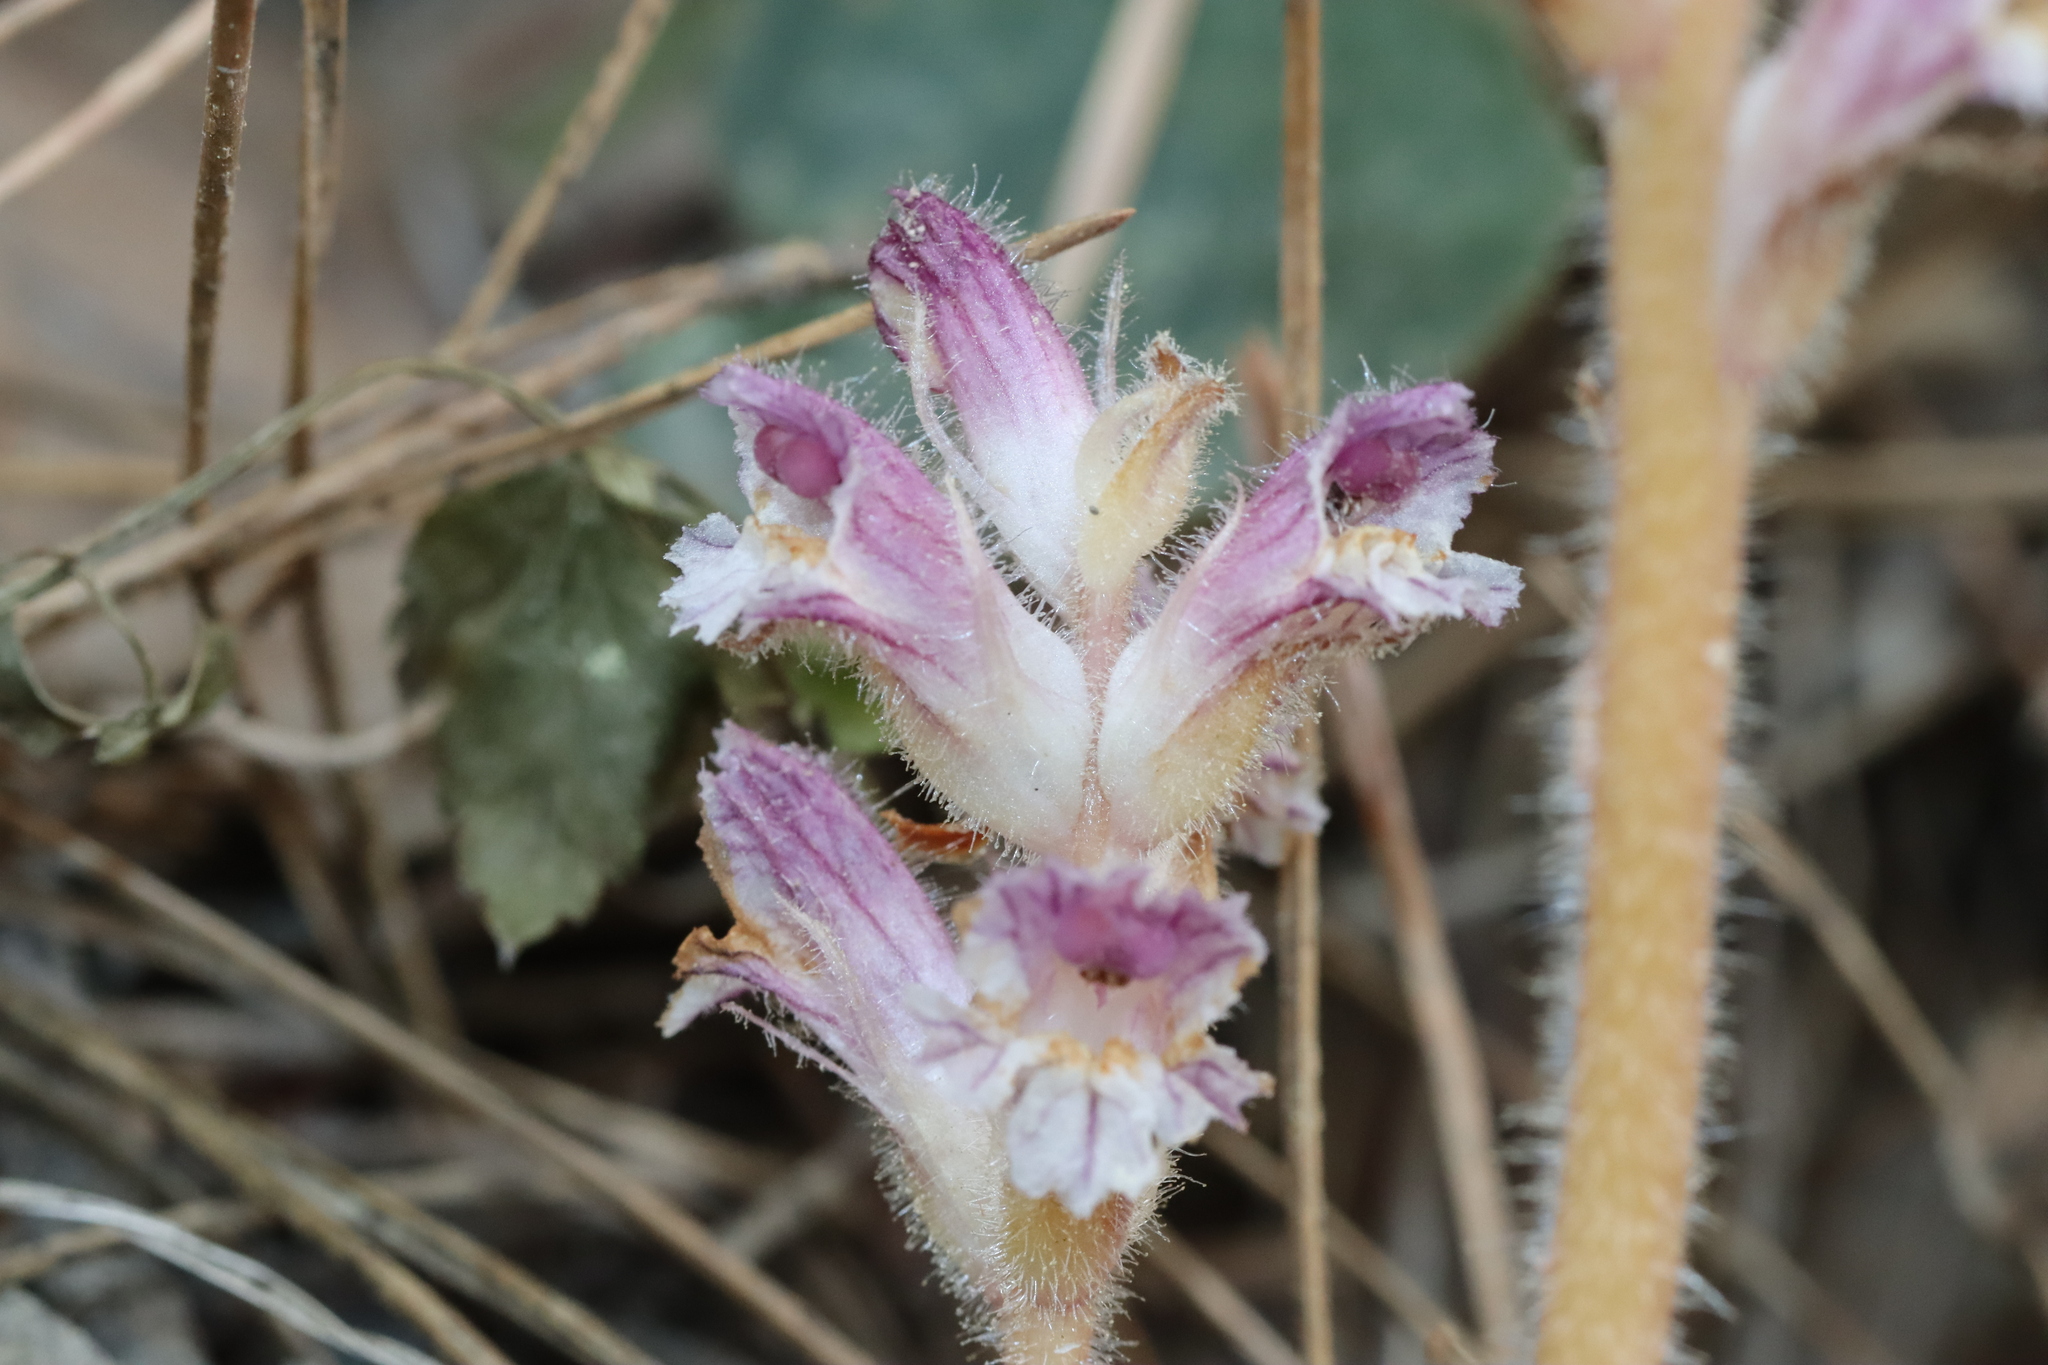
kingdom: Plantae
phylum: Tracheophyta
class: Magnoliopsida
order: Lamiales
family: Orobanchaceae
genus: Orobanche
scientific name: Orobanche pubescens
